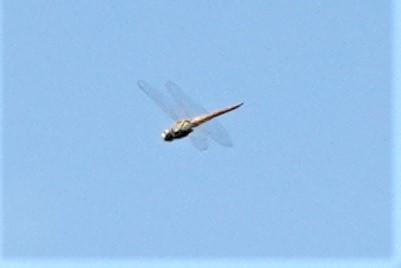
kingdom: Animalia
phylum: Arthropoda
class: Insecta
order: Odonata
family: Libellulidae
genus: Pantala
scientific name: Pantala flavescens
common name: Wandering glider
